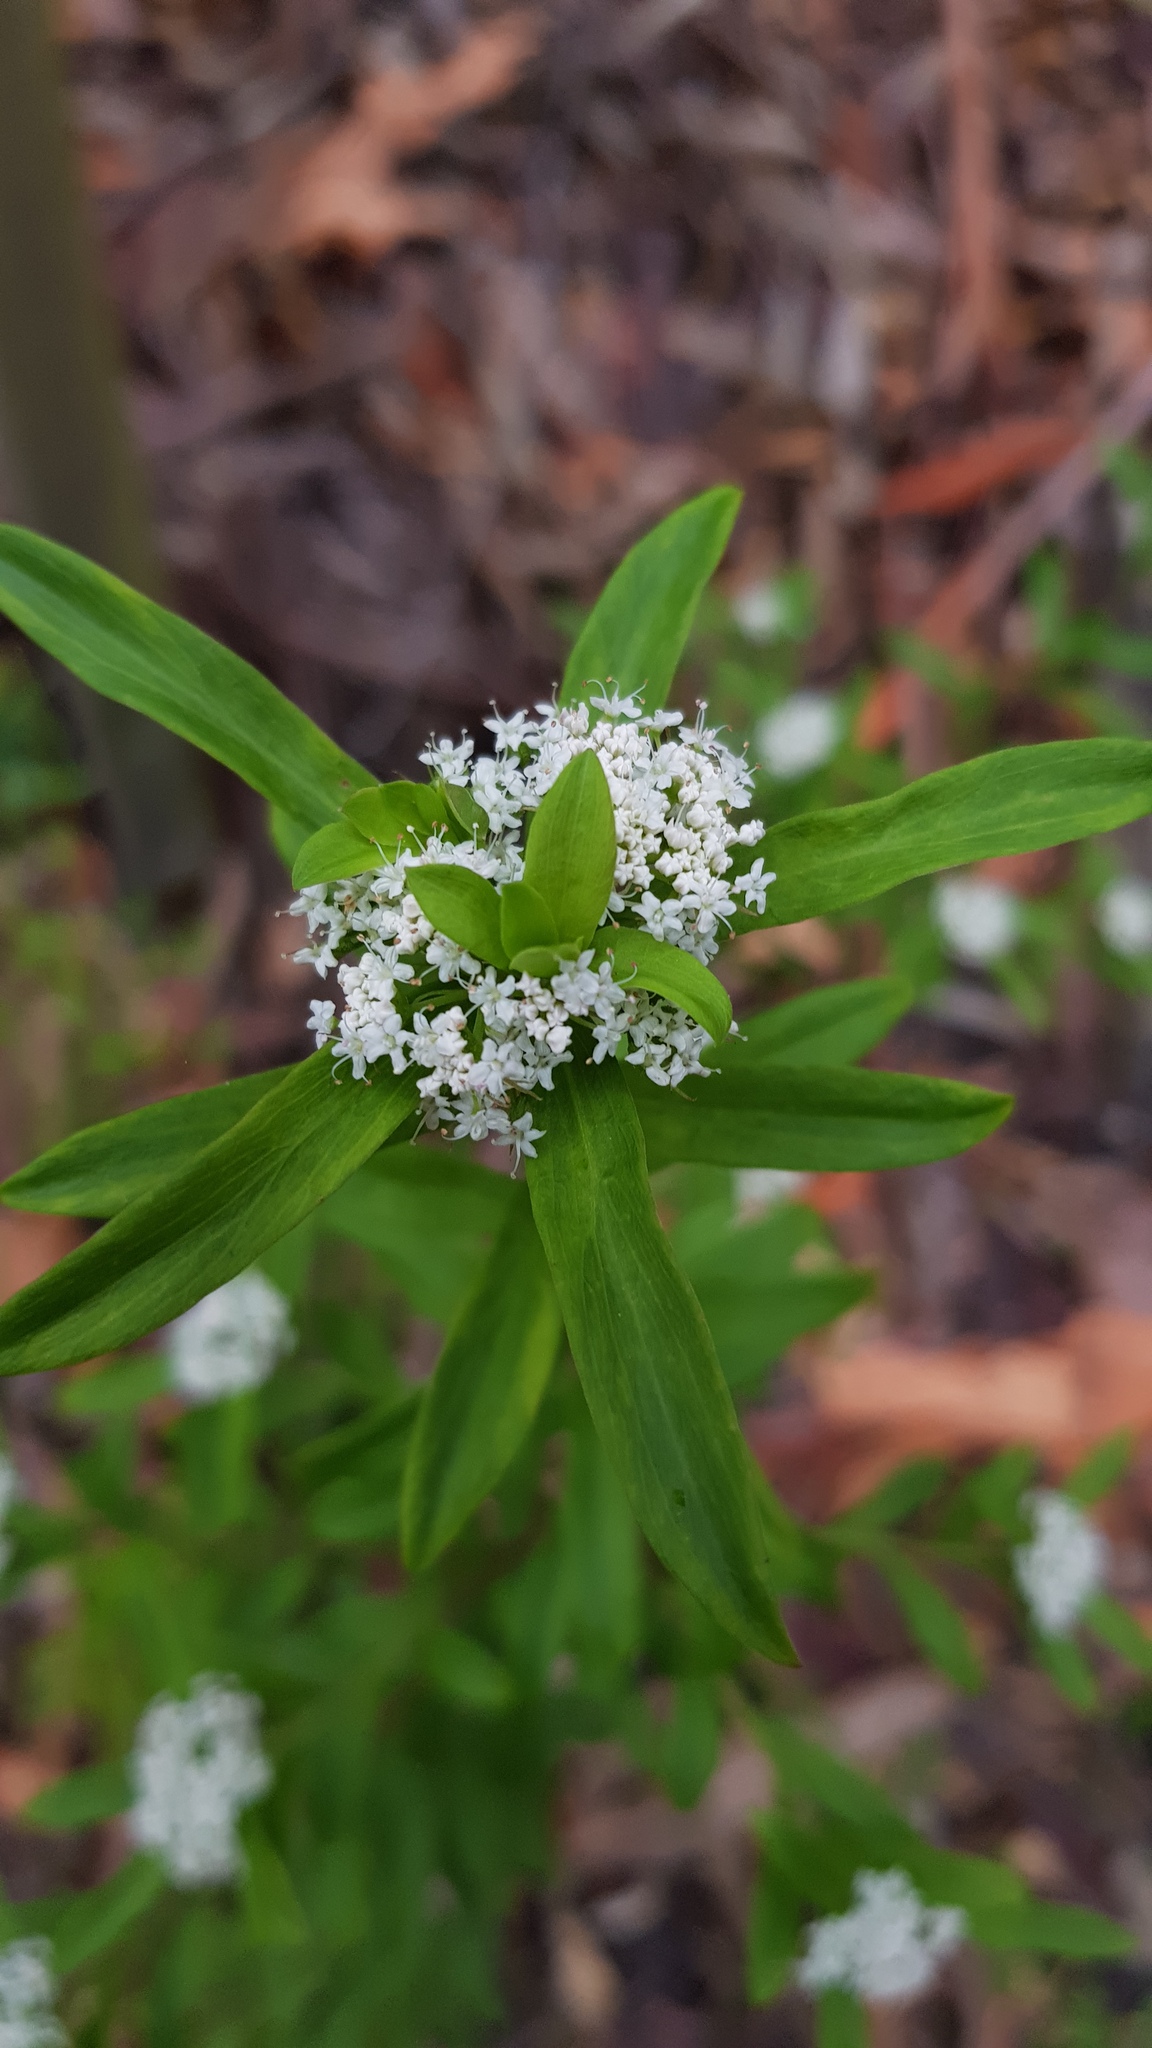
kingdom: Plantae
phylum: Tracheophyta
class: Magnoliopsida
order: Apiales
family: Apiaceae
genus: Platysace
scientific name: Platysace lanceolata
